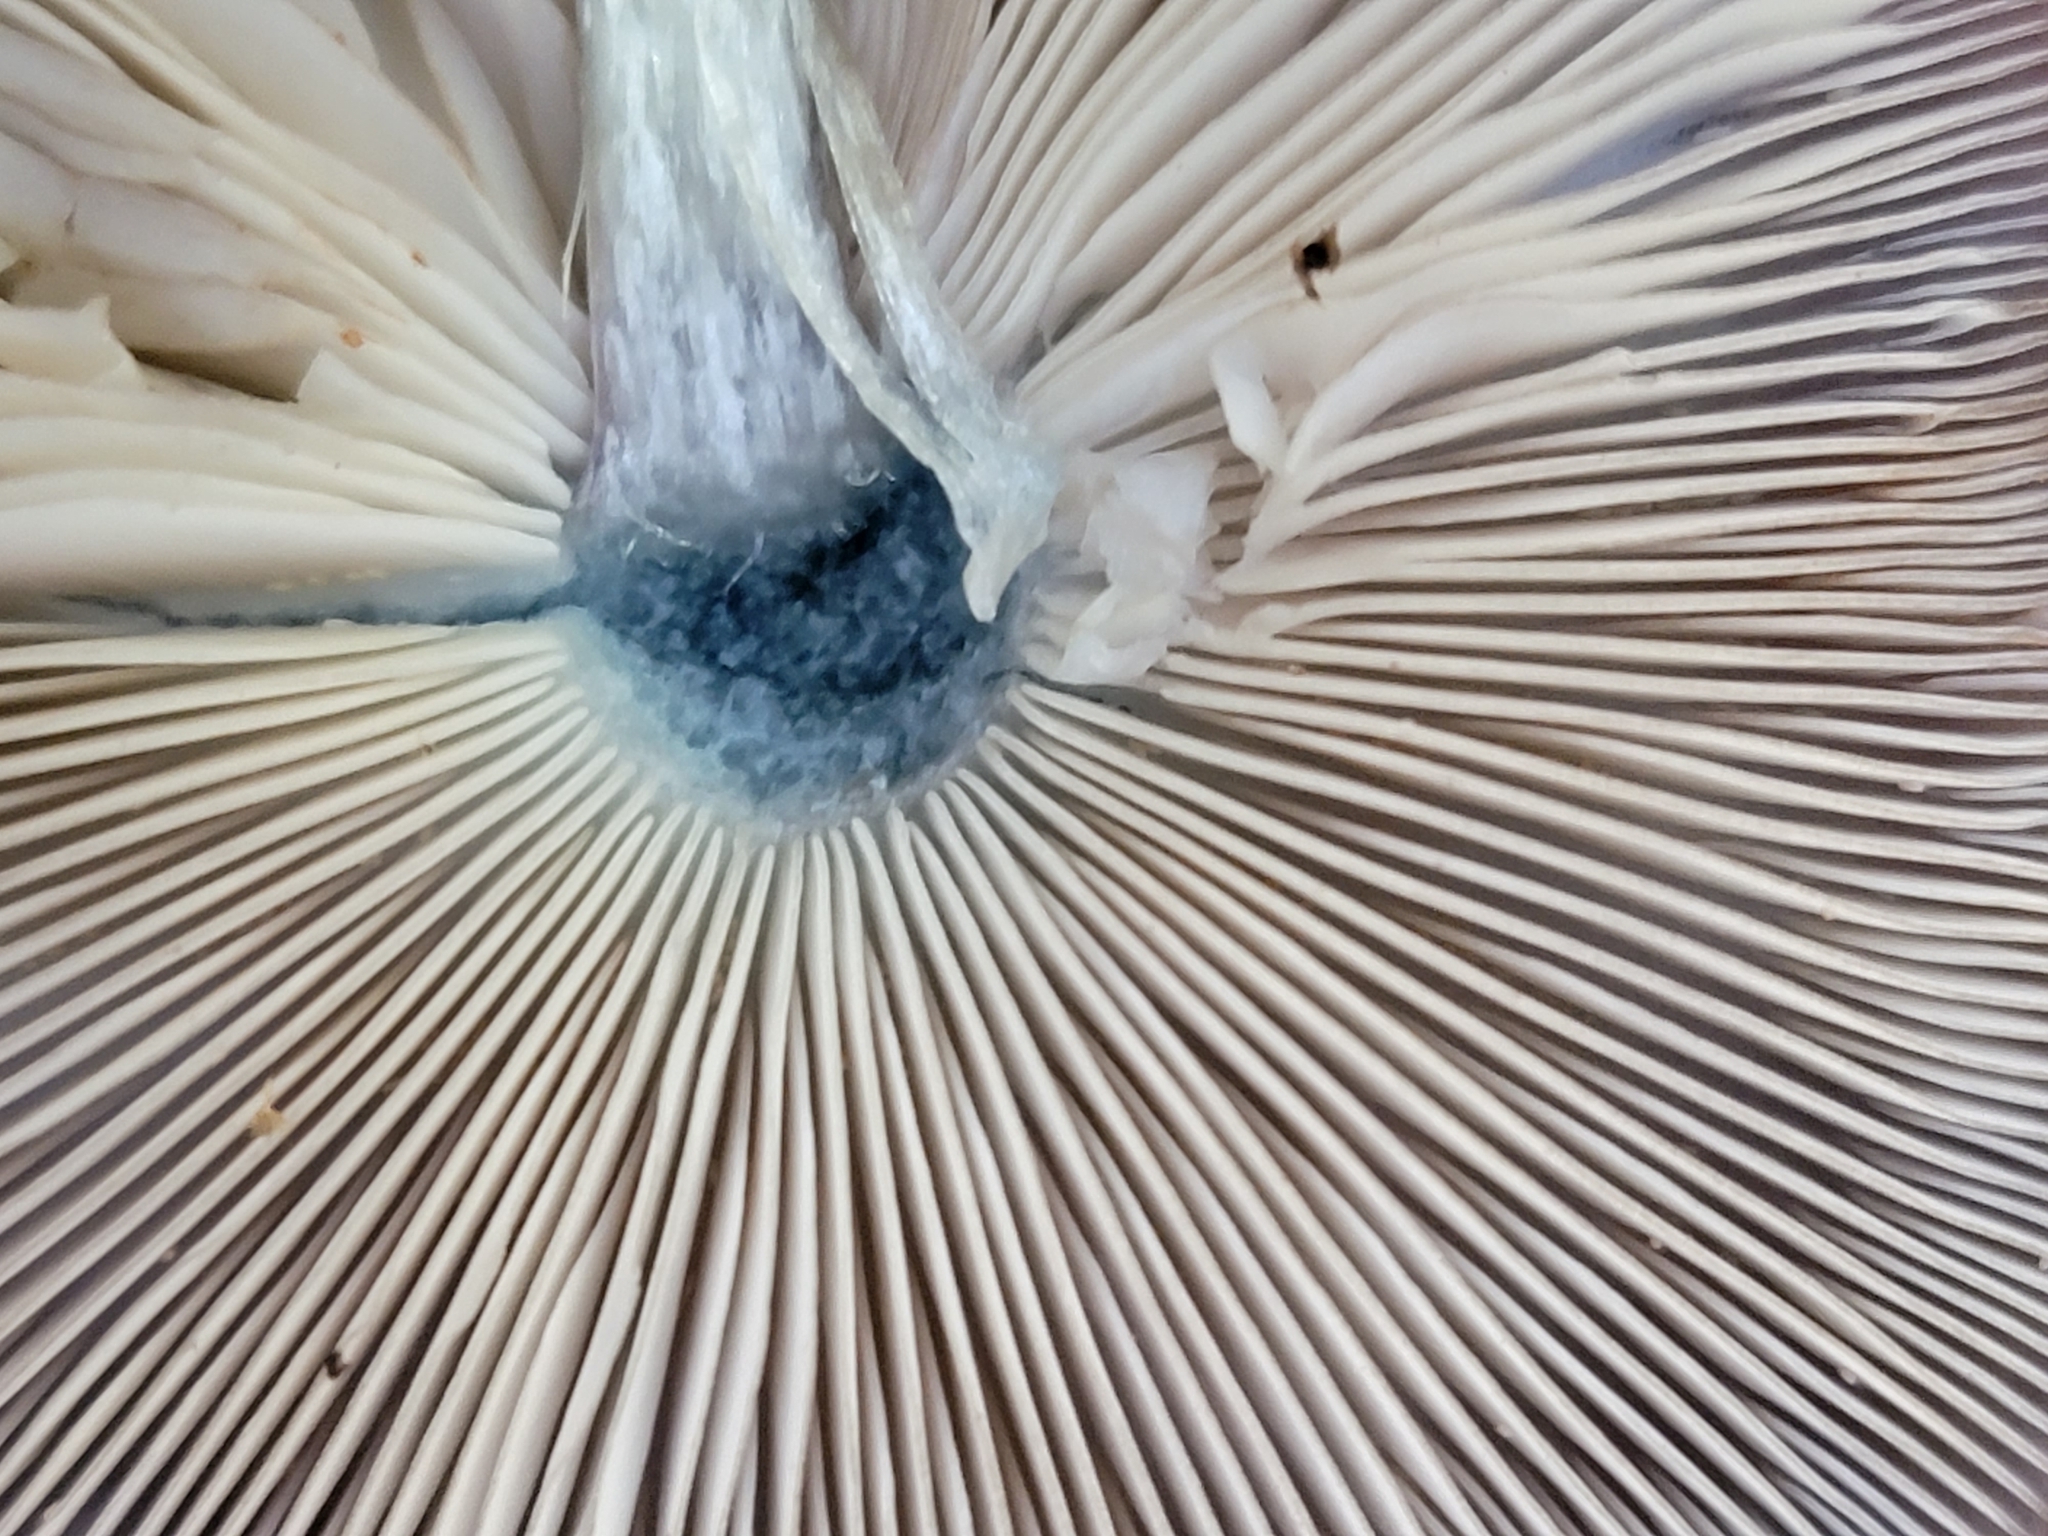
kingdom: Fungi
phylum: Basidiomycota
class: Agaricomycetes
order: Agaricales
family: Pluteaceae
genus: Pluteus
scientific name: Pluteus velutinornatus
